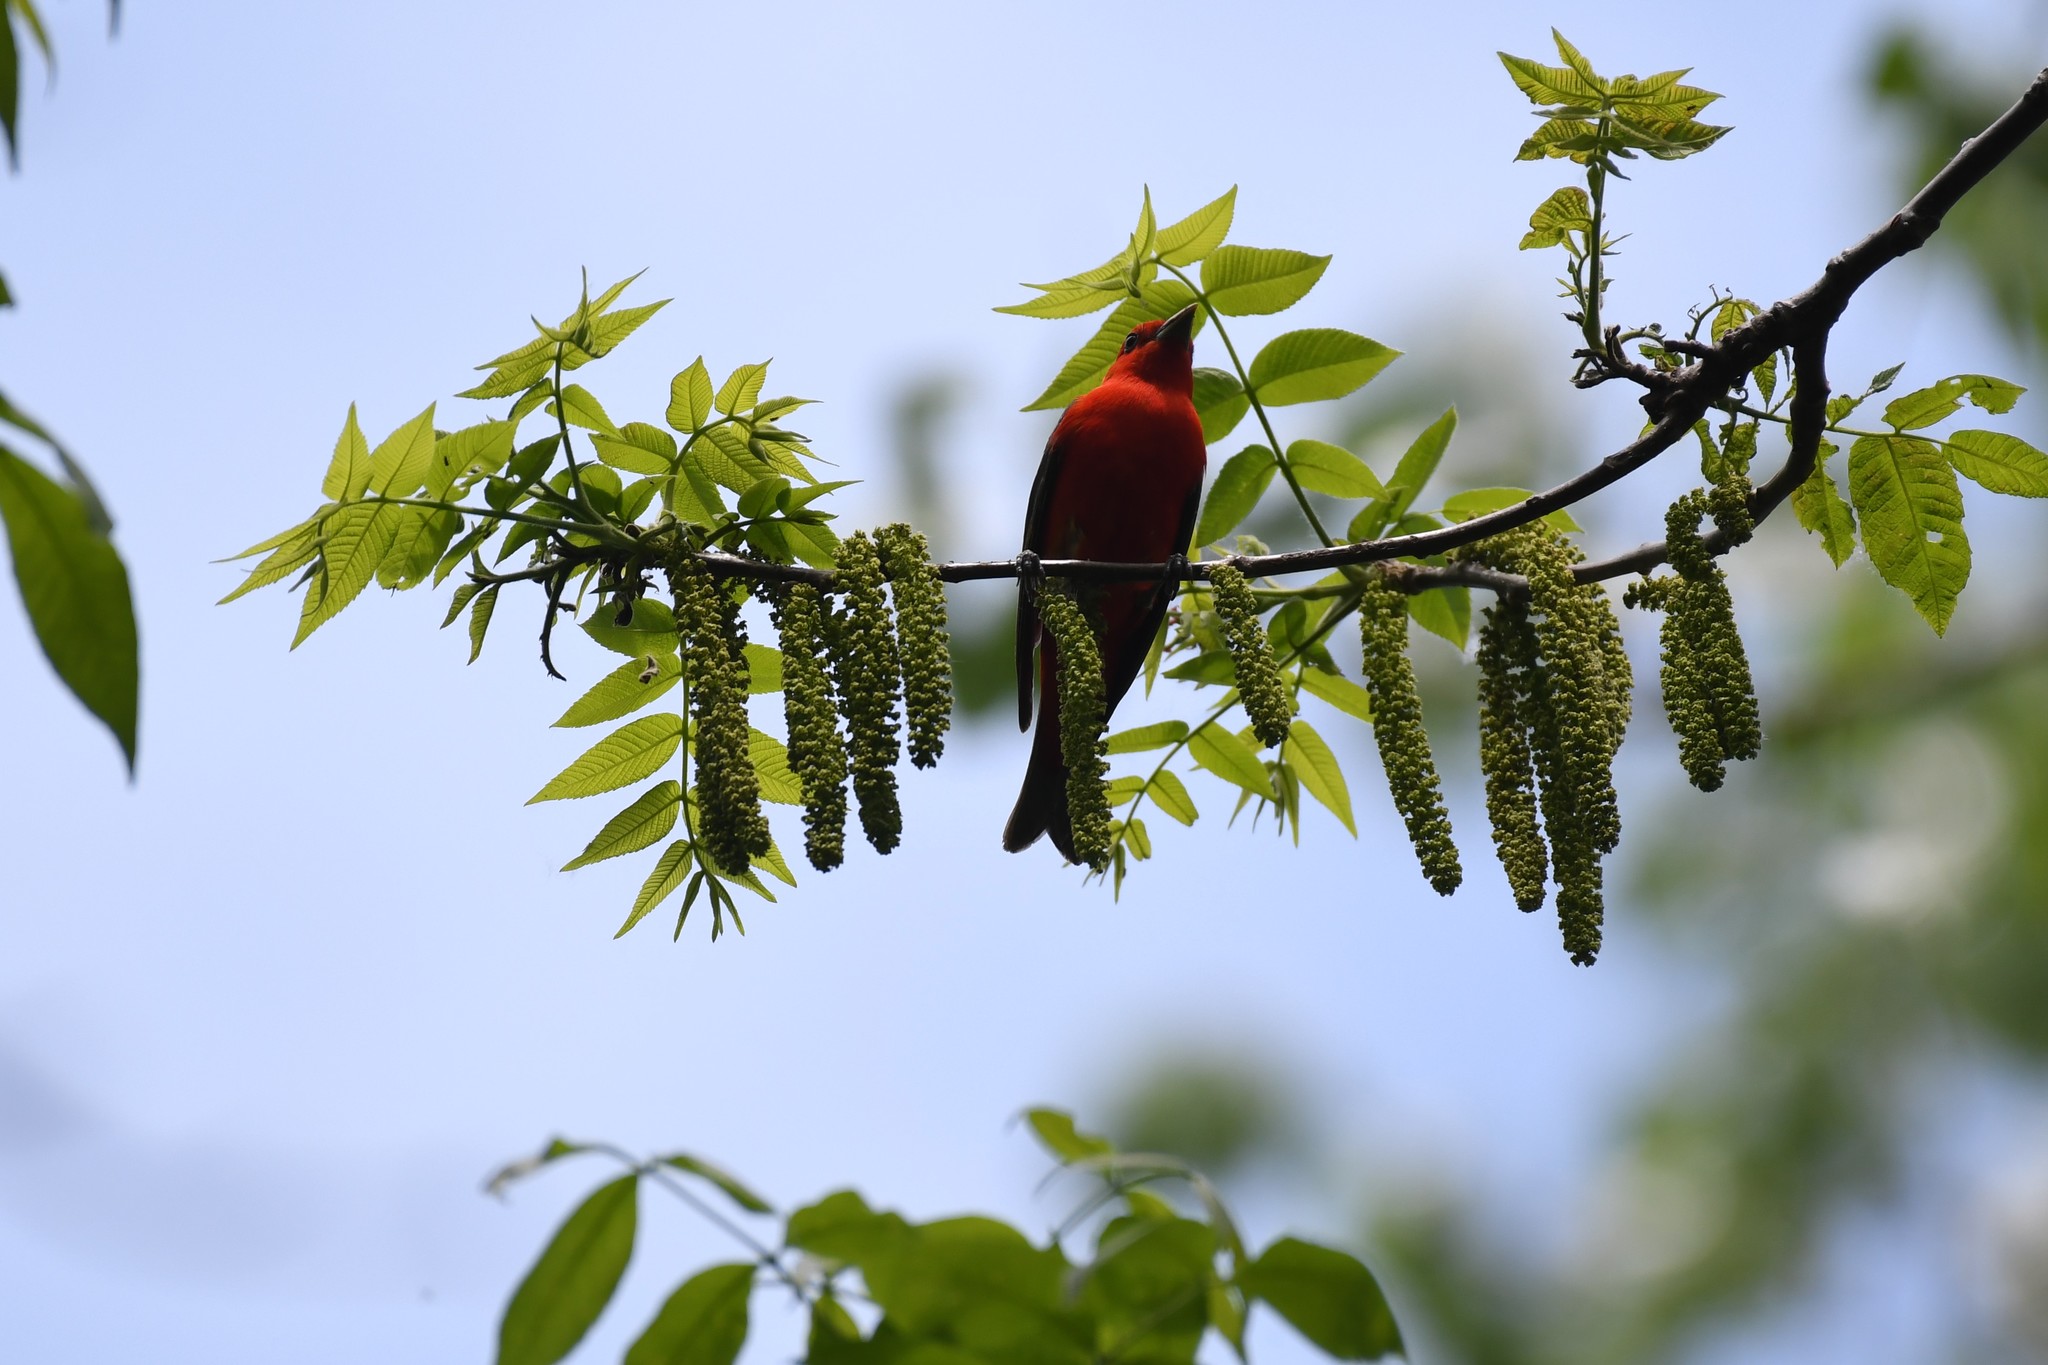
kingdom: Animalia
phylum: Chordata
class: Aves
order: Passeriformes
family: Cardinalidae
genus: Piranga
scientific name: Piranga olivacea
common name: Scarlet tanager
